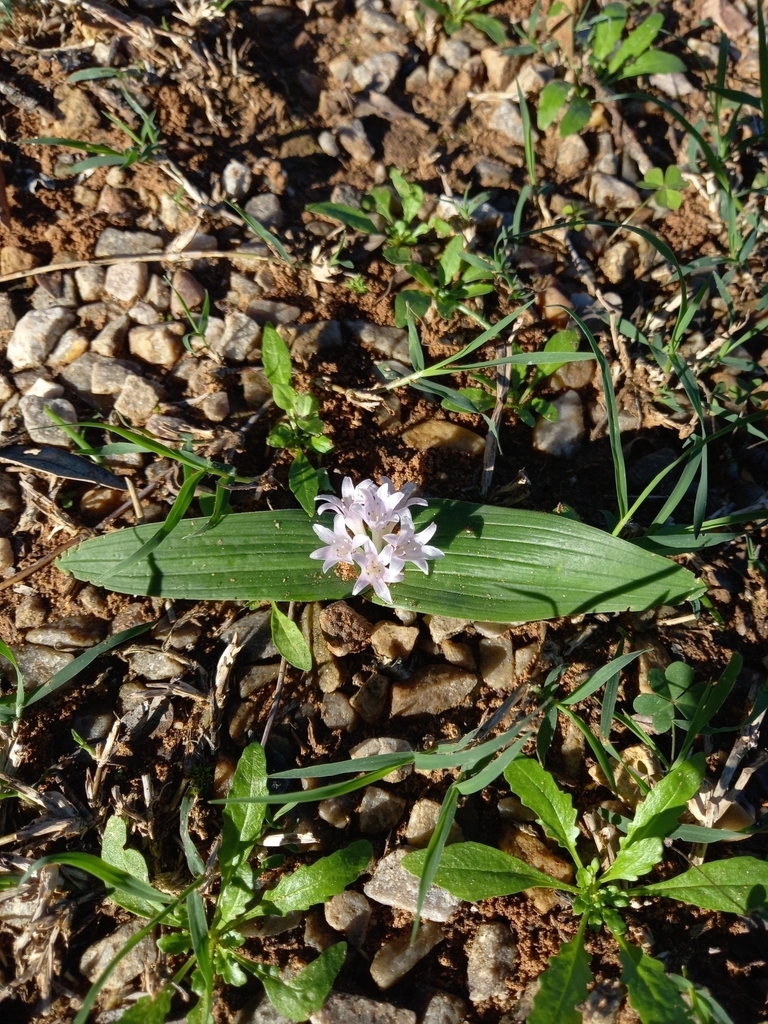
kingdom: Plantae
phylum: Tracheophyta
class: Liliopsida
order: Asparagales
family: Asparagaceae
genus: Lachenalia
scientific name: Lachenalia ensifolia
